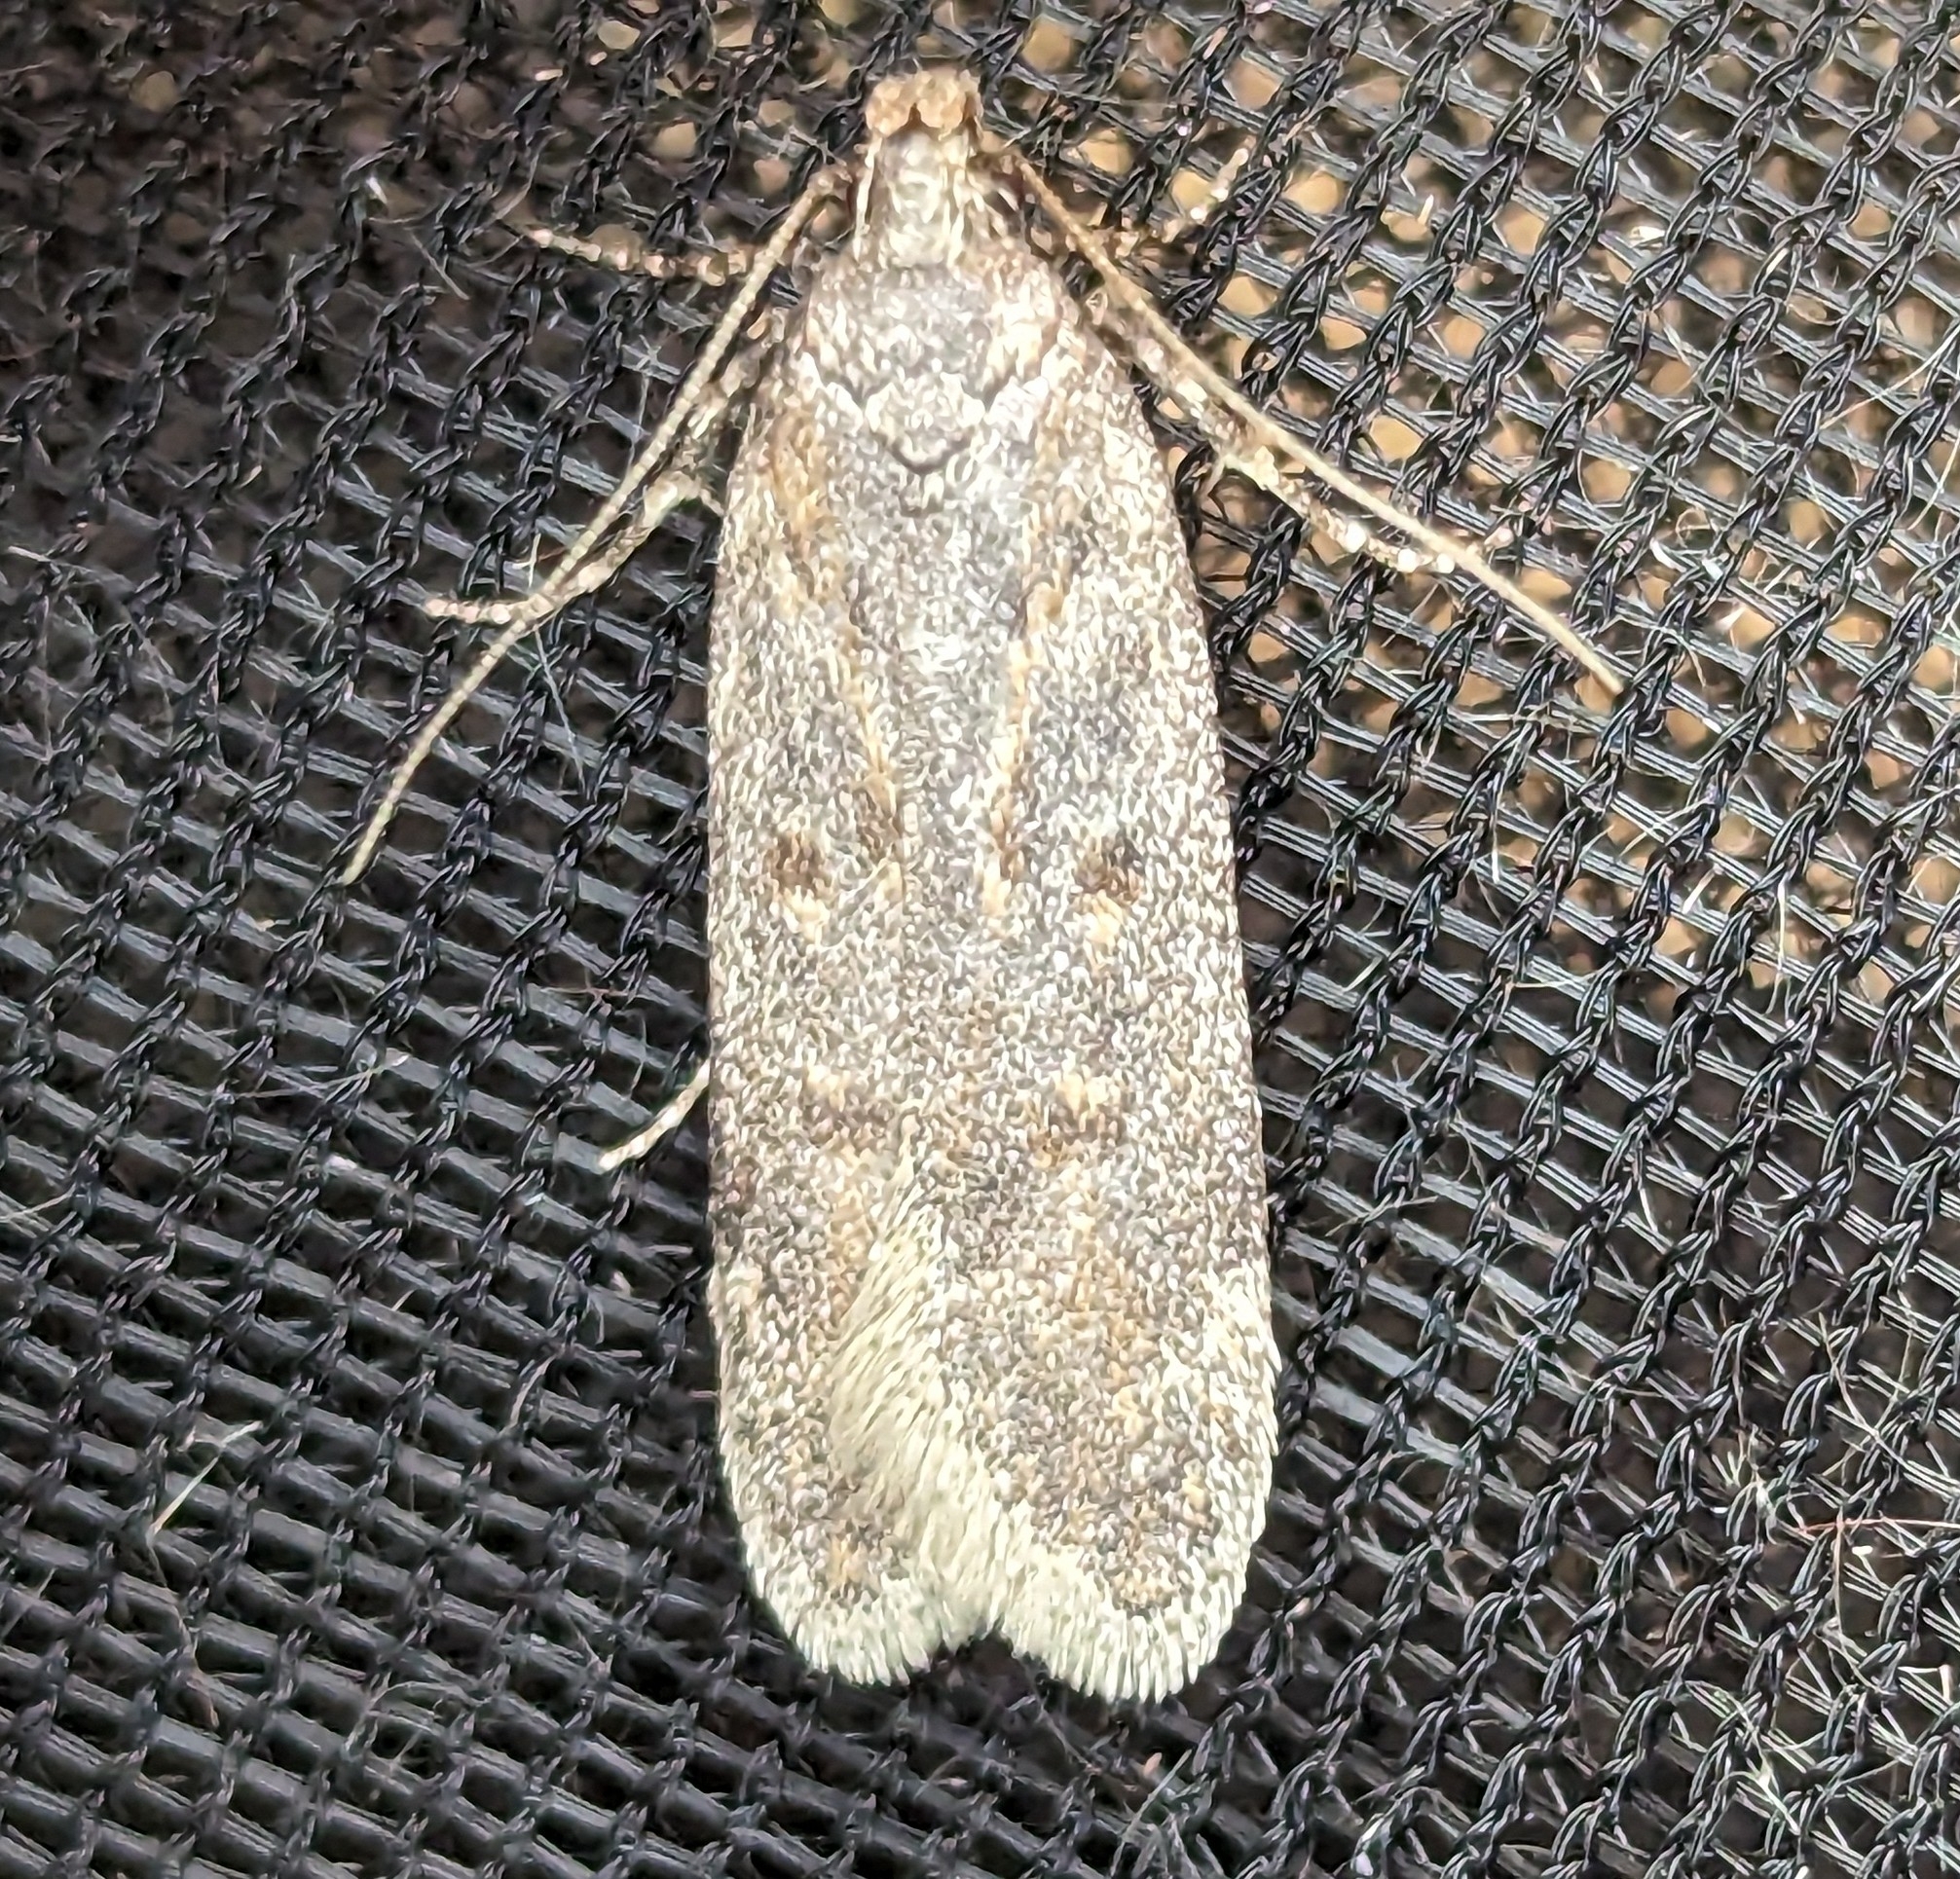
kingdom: Animalia
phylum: Arthropoda
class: Insecta
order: Lepidoptera
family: Gelechiidae
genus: Filatima
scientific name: Filatima abactella
